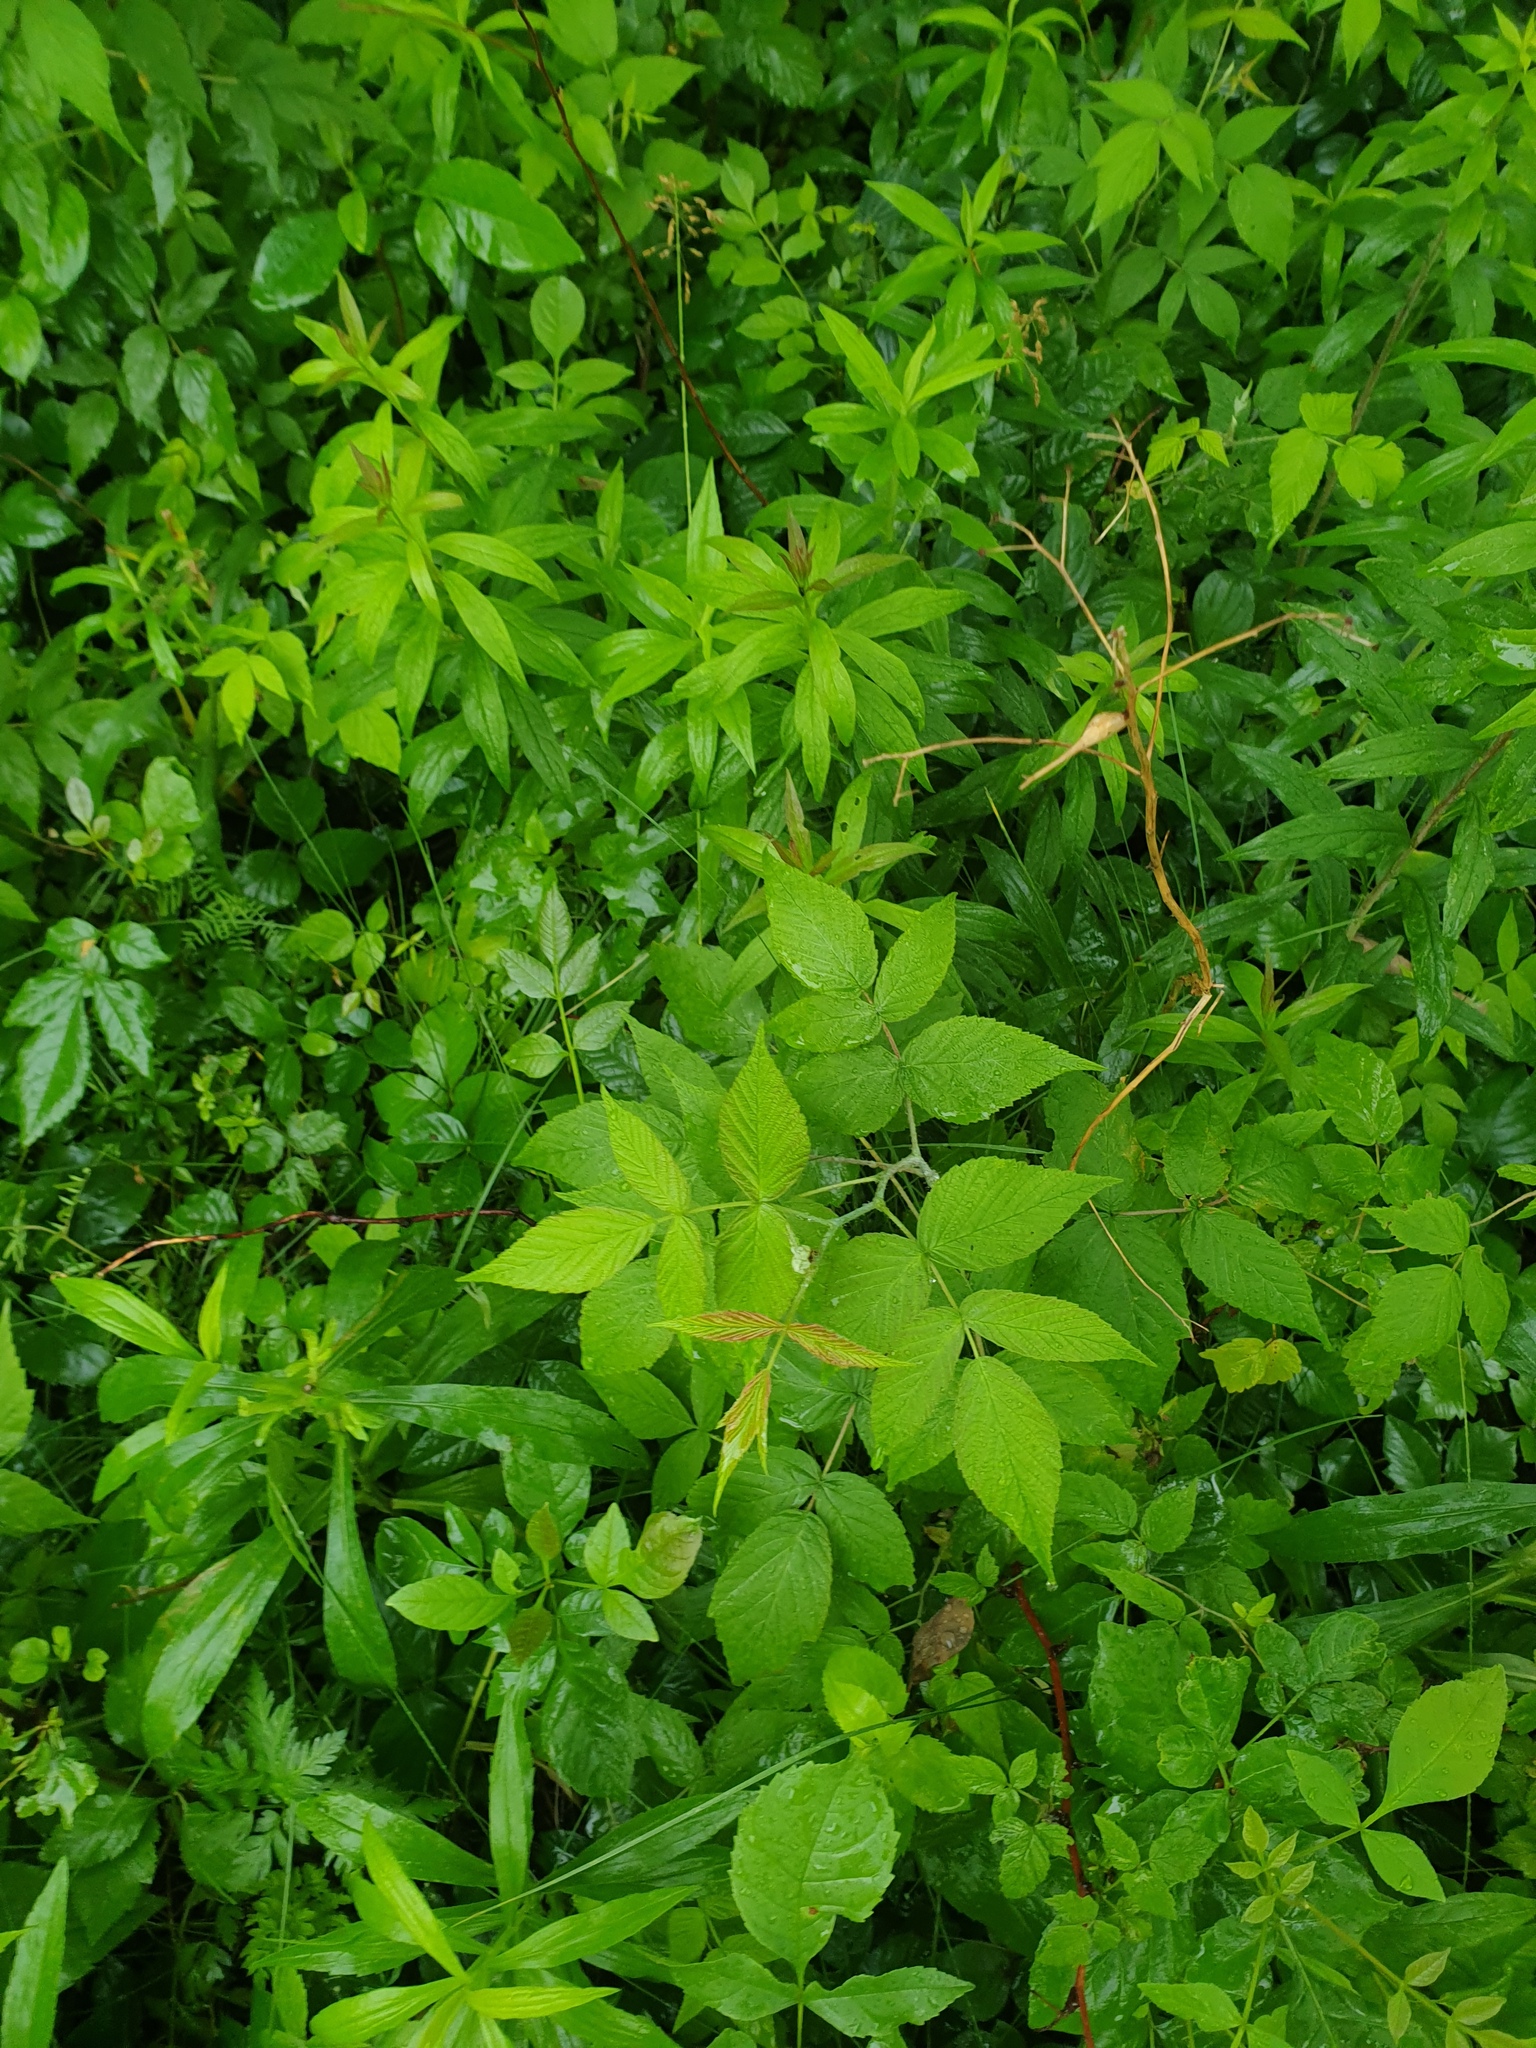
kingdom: Plantae
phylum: Tracheophyta
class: Magnoliopsida
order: Rosales
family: Rosaceae
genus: Rubus
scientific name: Rubus idaeus
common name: Raspberry
